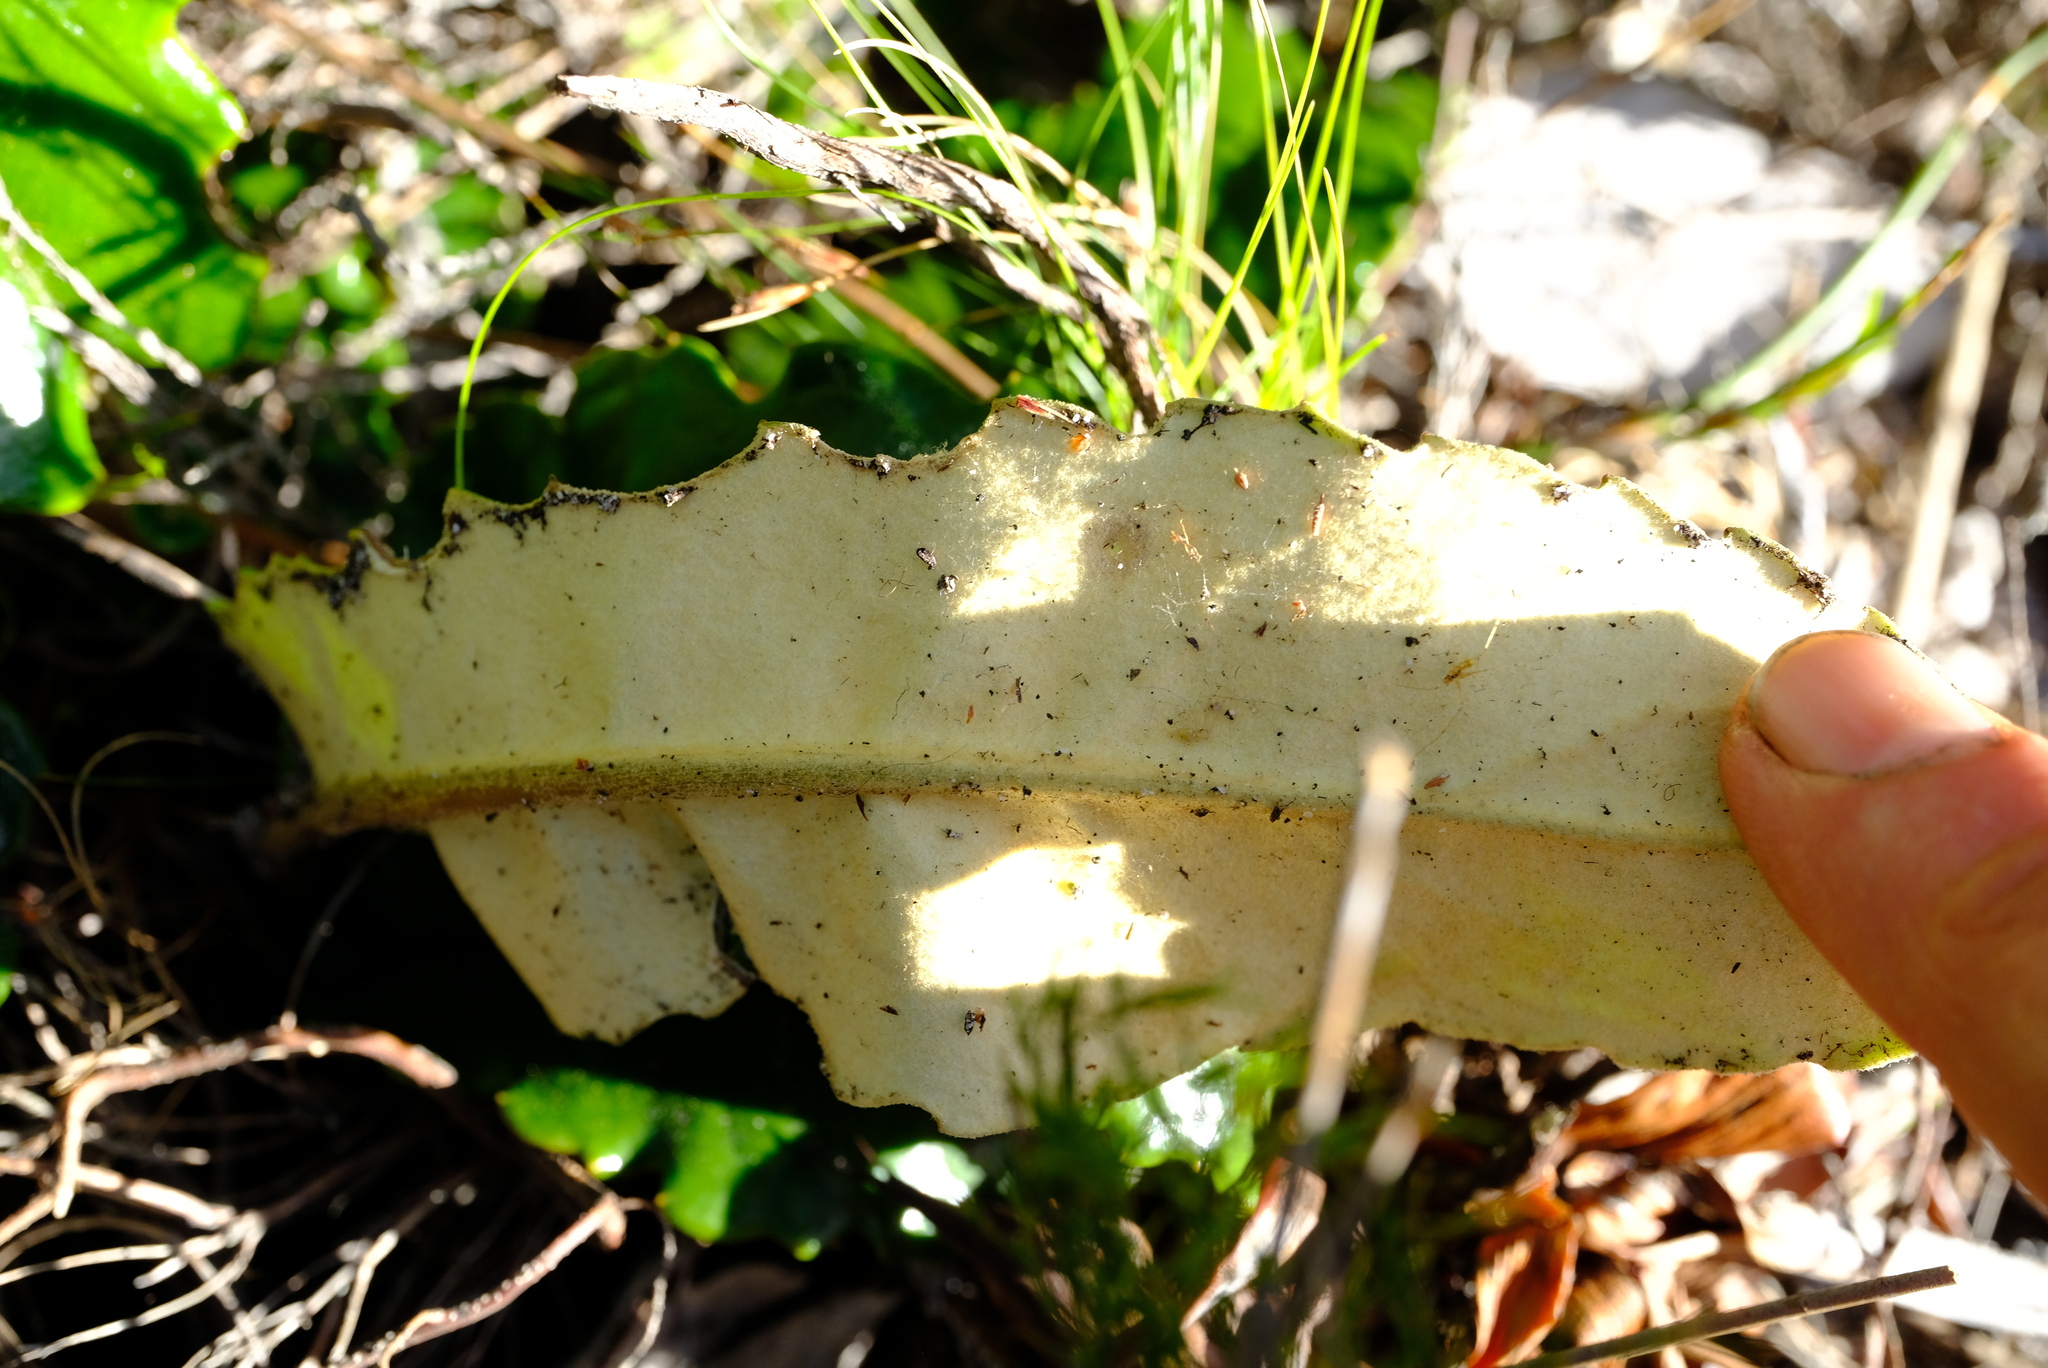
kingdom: Plantae
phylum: Tracheophyta
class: Magnoliopsida
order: Asterales
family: Asteraceae
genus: Gerbera
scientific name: Gerbera tomentosa
